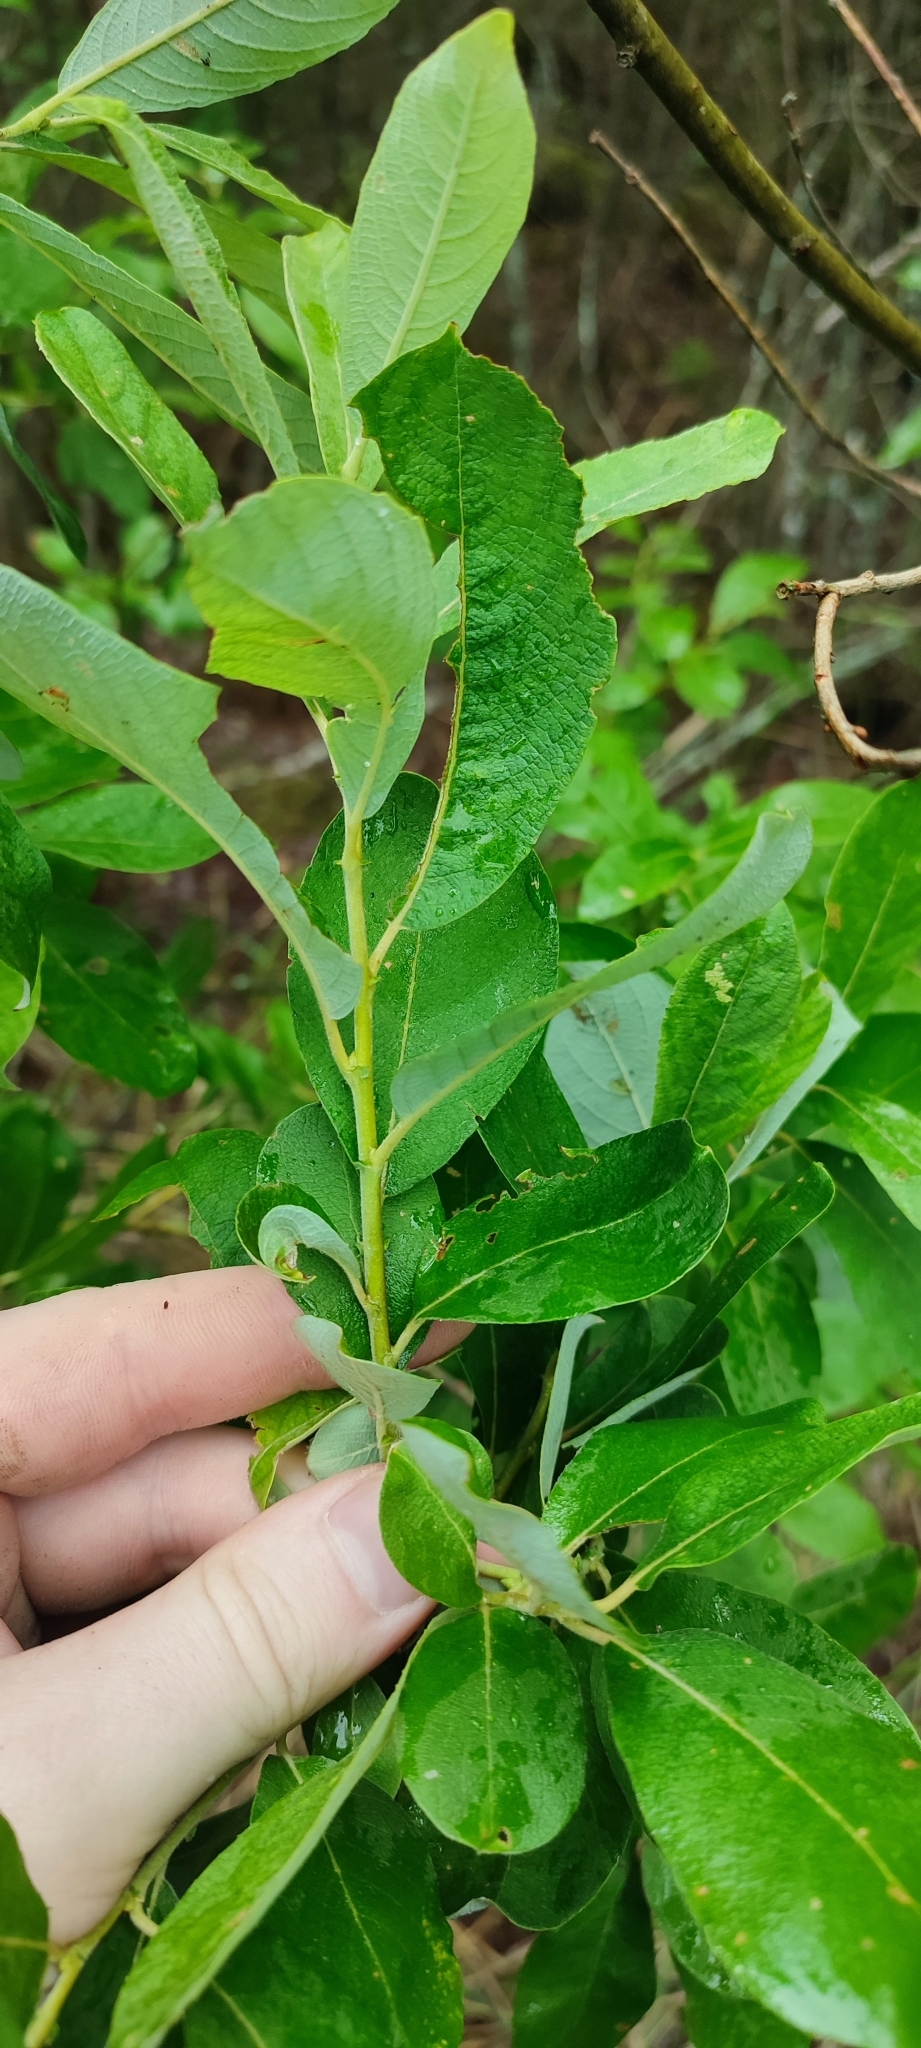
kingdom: Plantae
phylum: Tracheophyta
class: Magnoliopsida
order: Malpighiales
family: Salicaceae
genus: Salix
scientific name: Salix cinerea
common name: Common sallow
